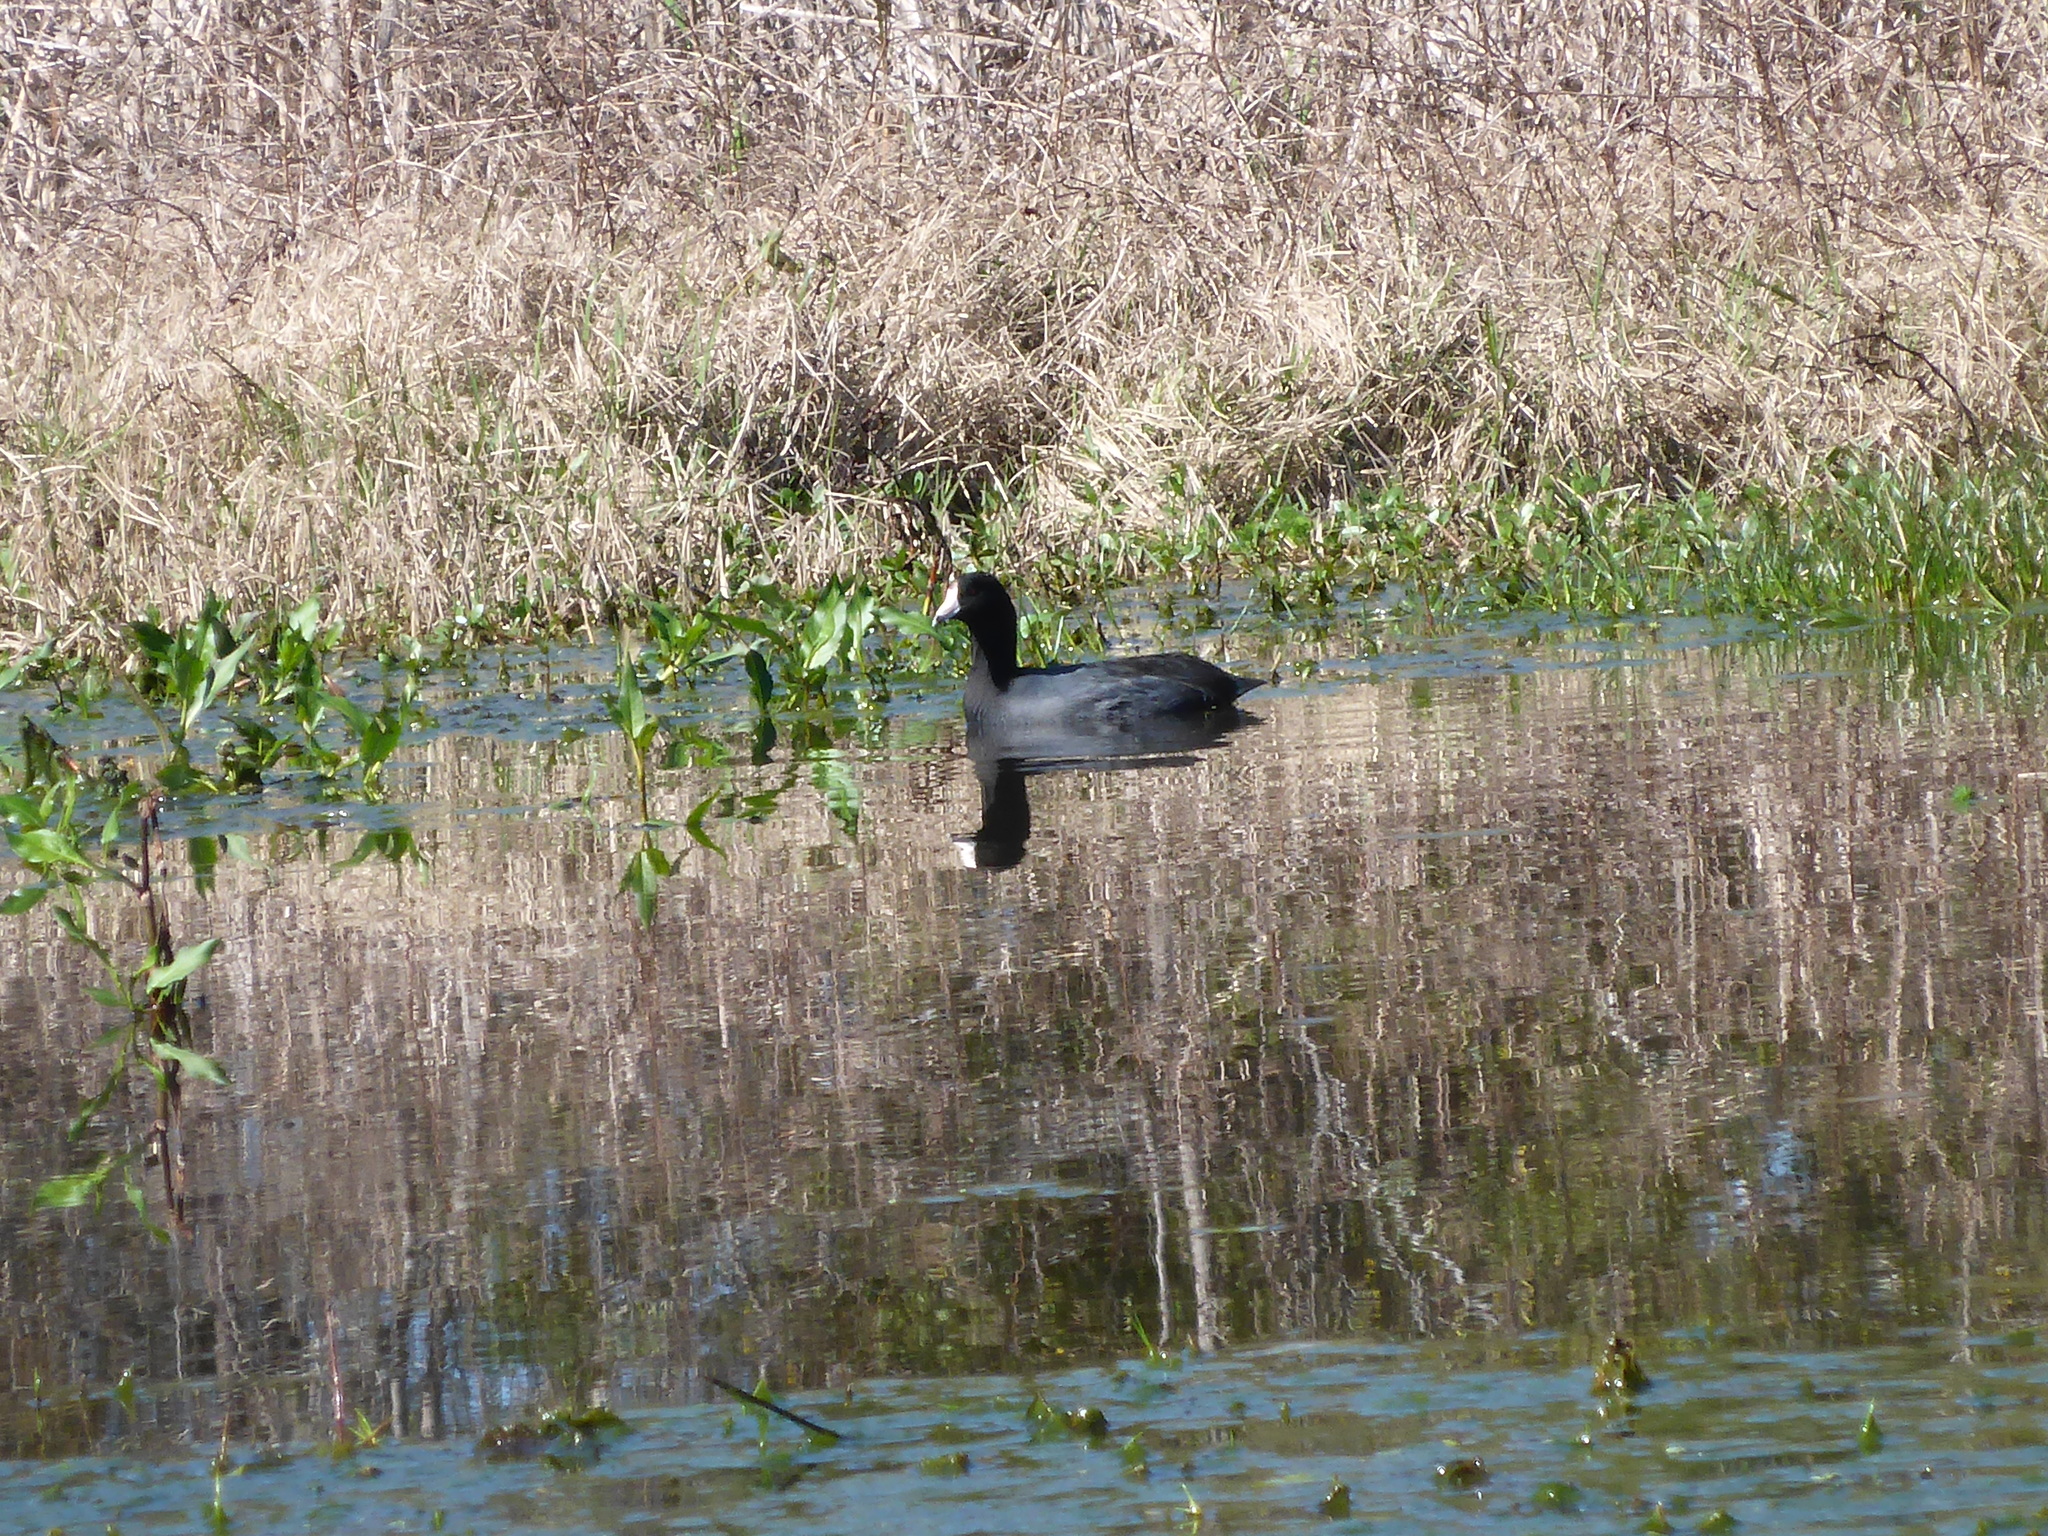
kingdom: Animalia
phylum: Chordata
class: Aves
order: Gruiformes
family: Rallidae
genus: Fulica
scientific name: Fulica americana
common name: American coot
